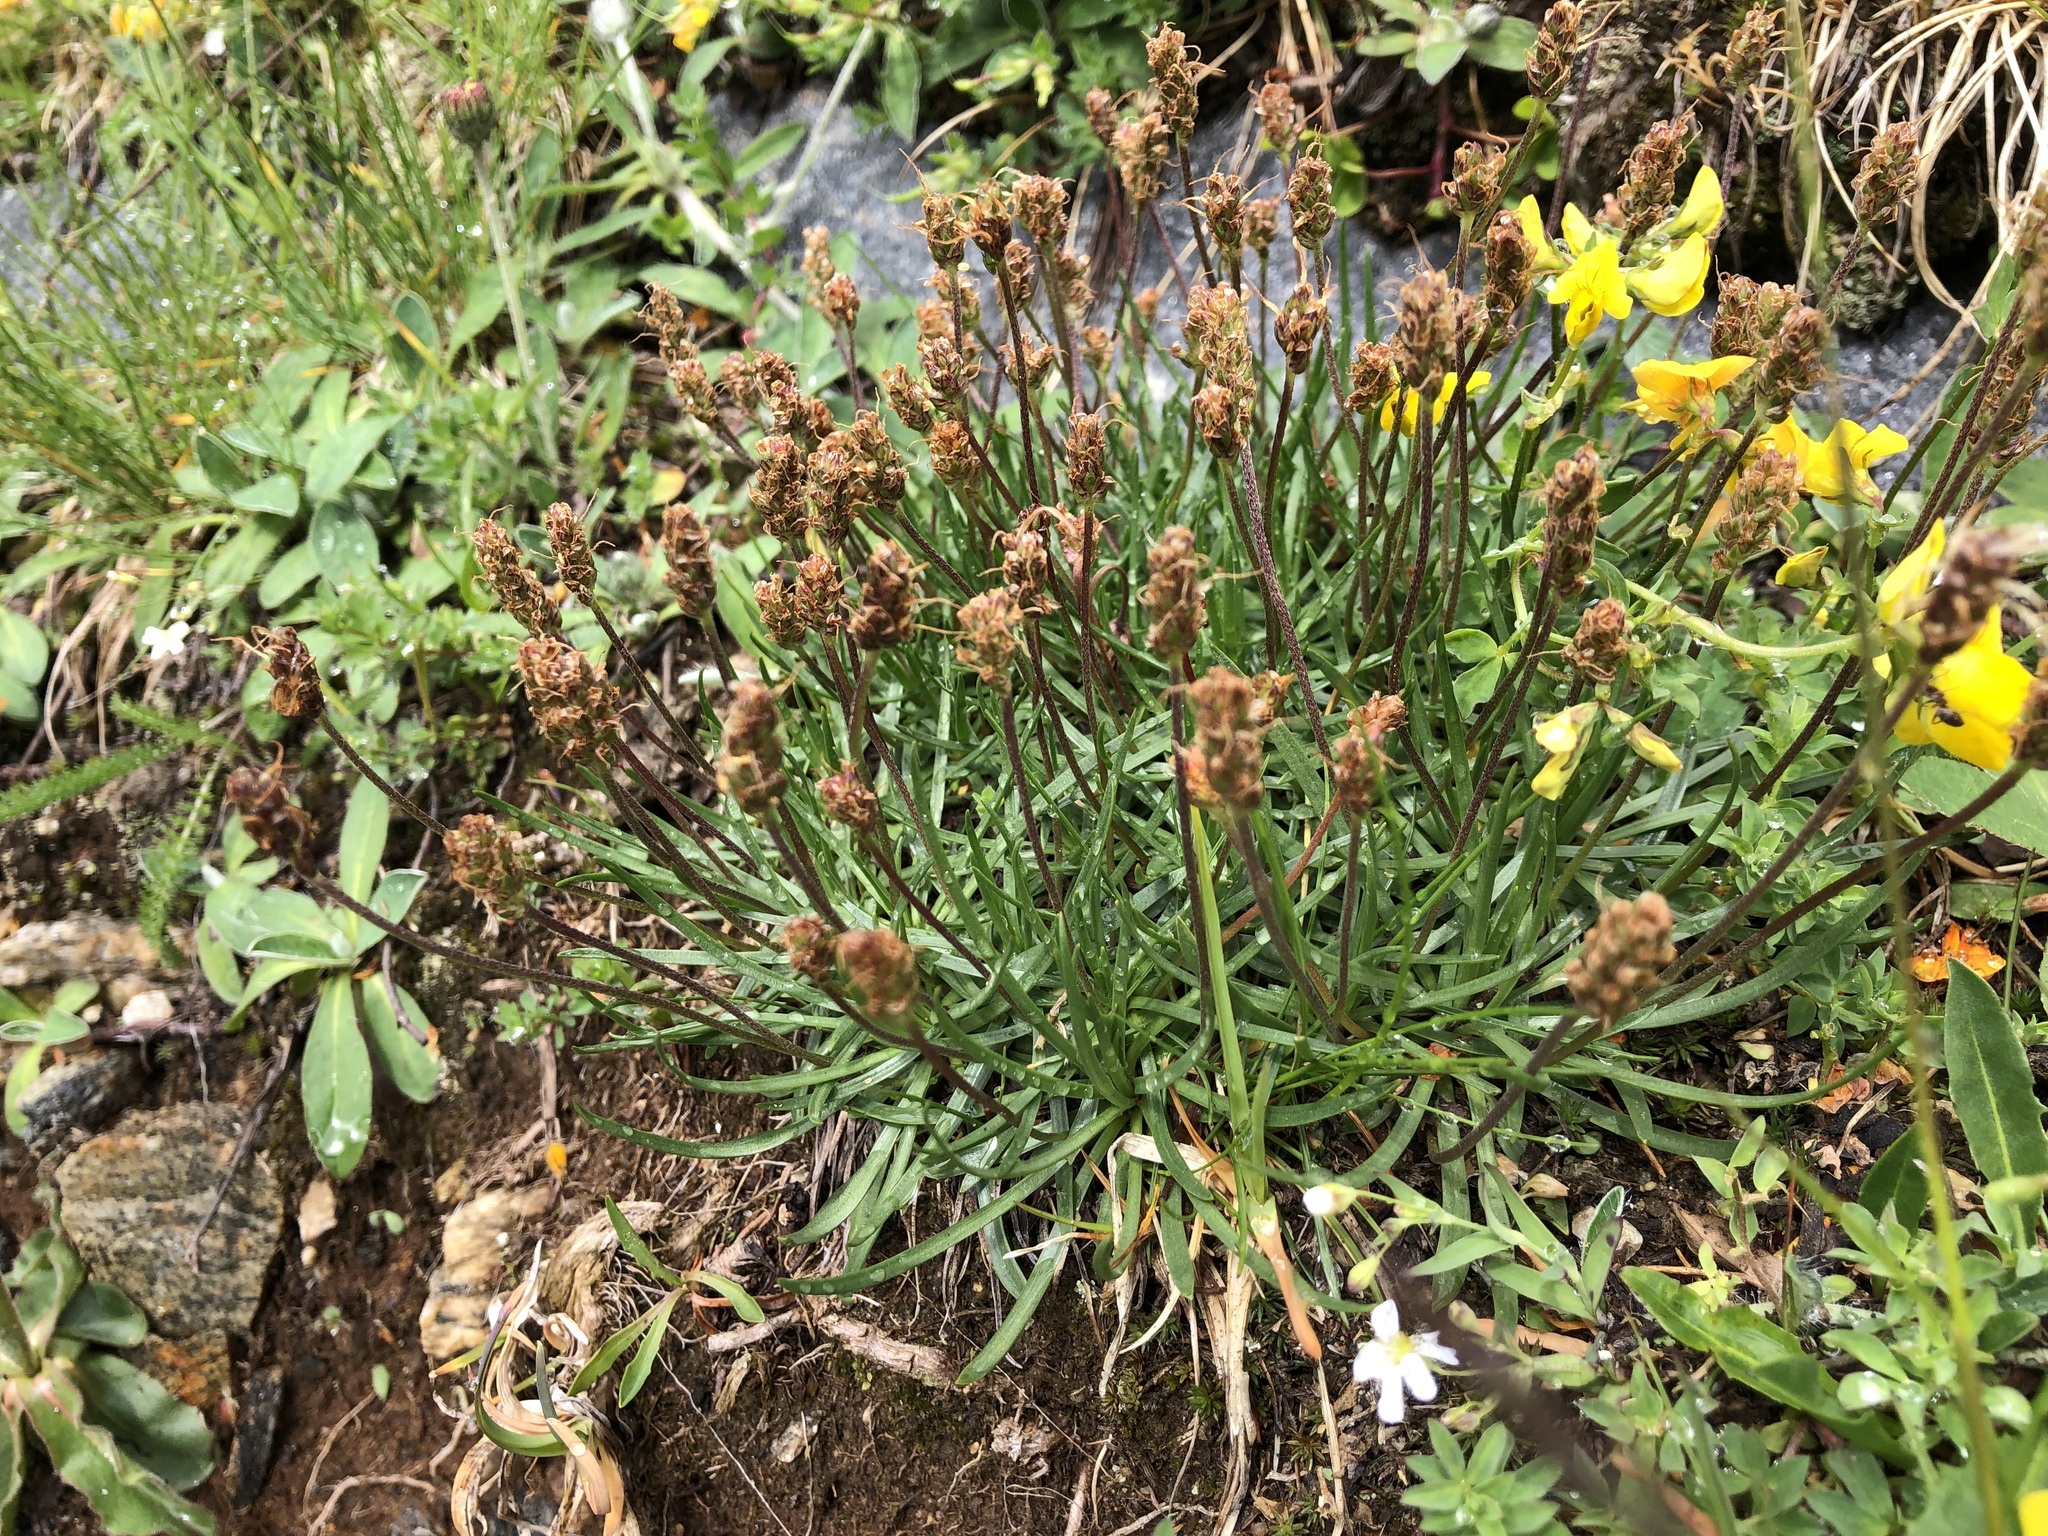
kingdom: Plantae
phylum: Tracheophyta
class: Magnoliopsida
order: Lamiales
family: Plantaginaceae
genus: Plantago
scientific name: Plantago alpina
